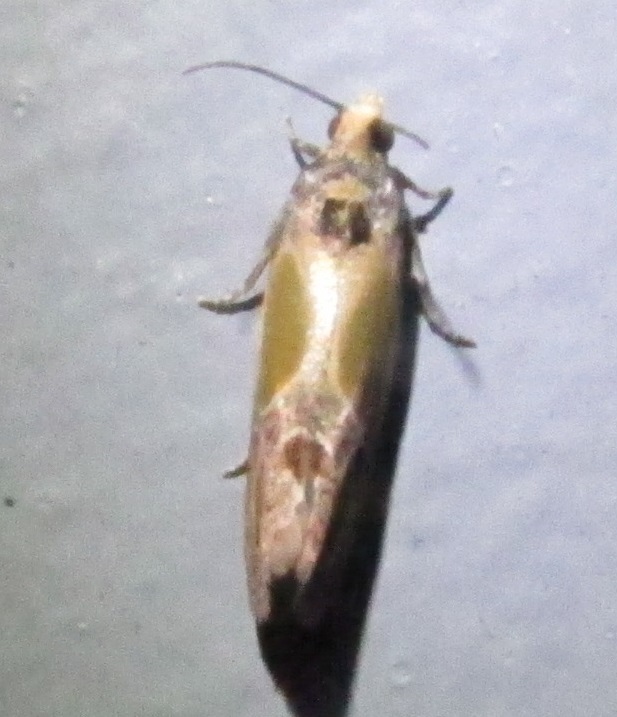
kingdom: Animalia
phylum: Arthropoda
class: Insecta
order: Lepidoptera
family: Tortricidae
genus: Eumarozia
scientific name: Eumarozia malachitana
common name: Sculptured moth
